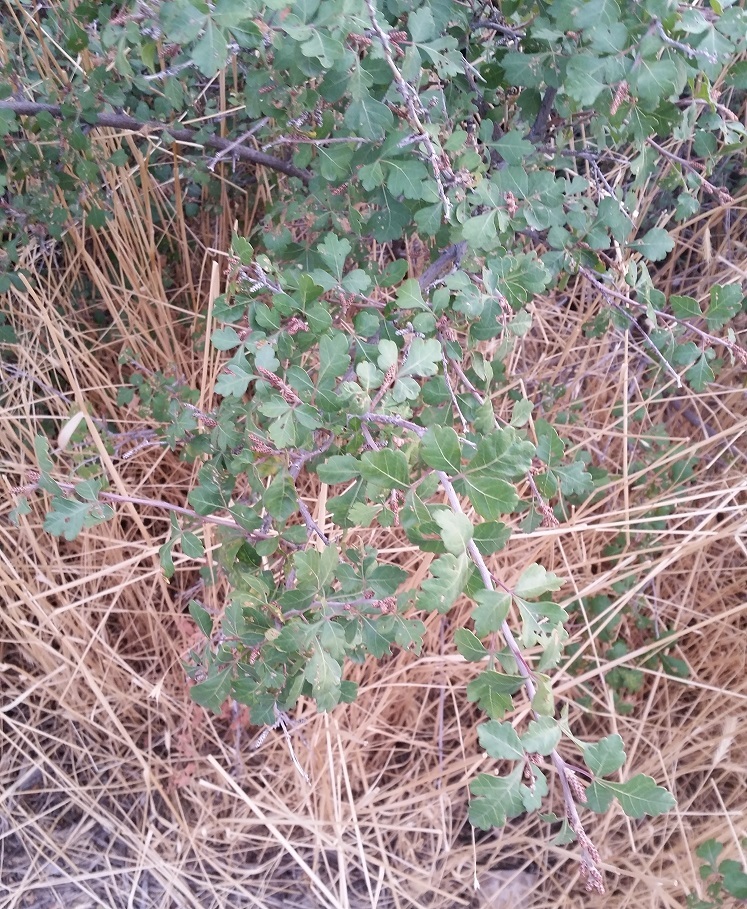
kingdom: Plantae
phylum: Tracheophyta
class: Magnoliopsida
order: Sapindales
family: Anacardiaceae
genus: Rhus
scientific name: Rhus aromatica
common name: Aromatic sumac
